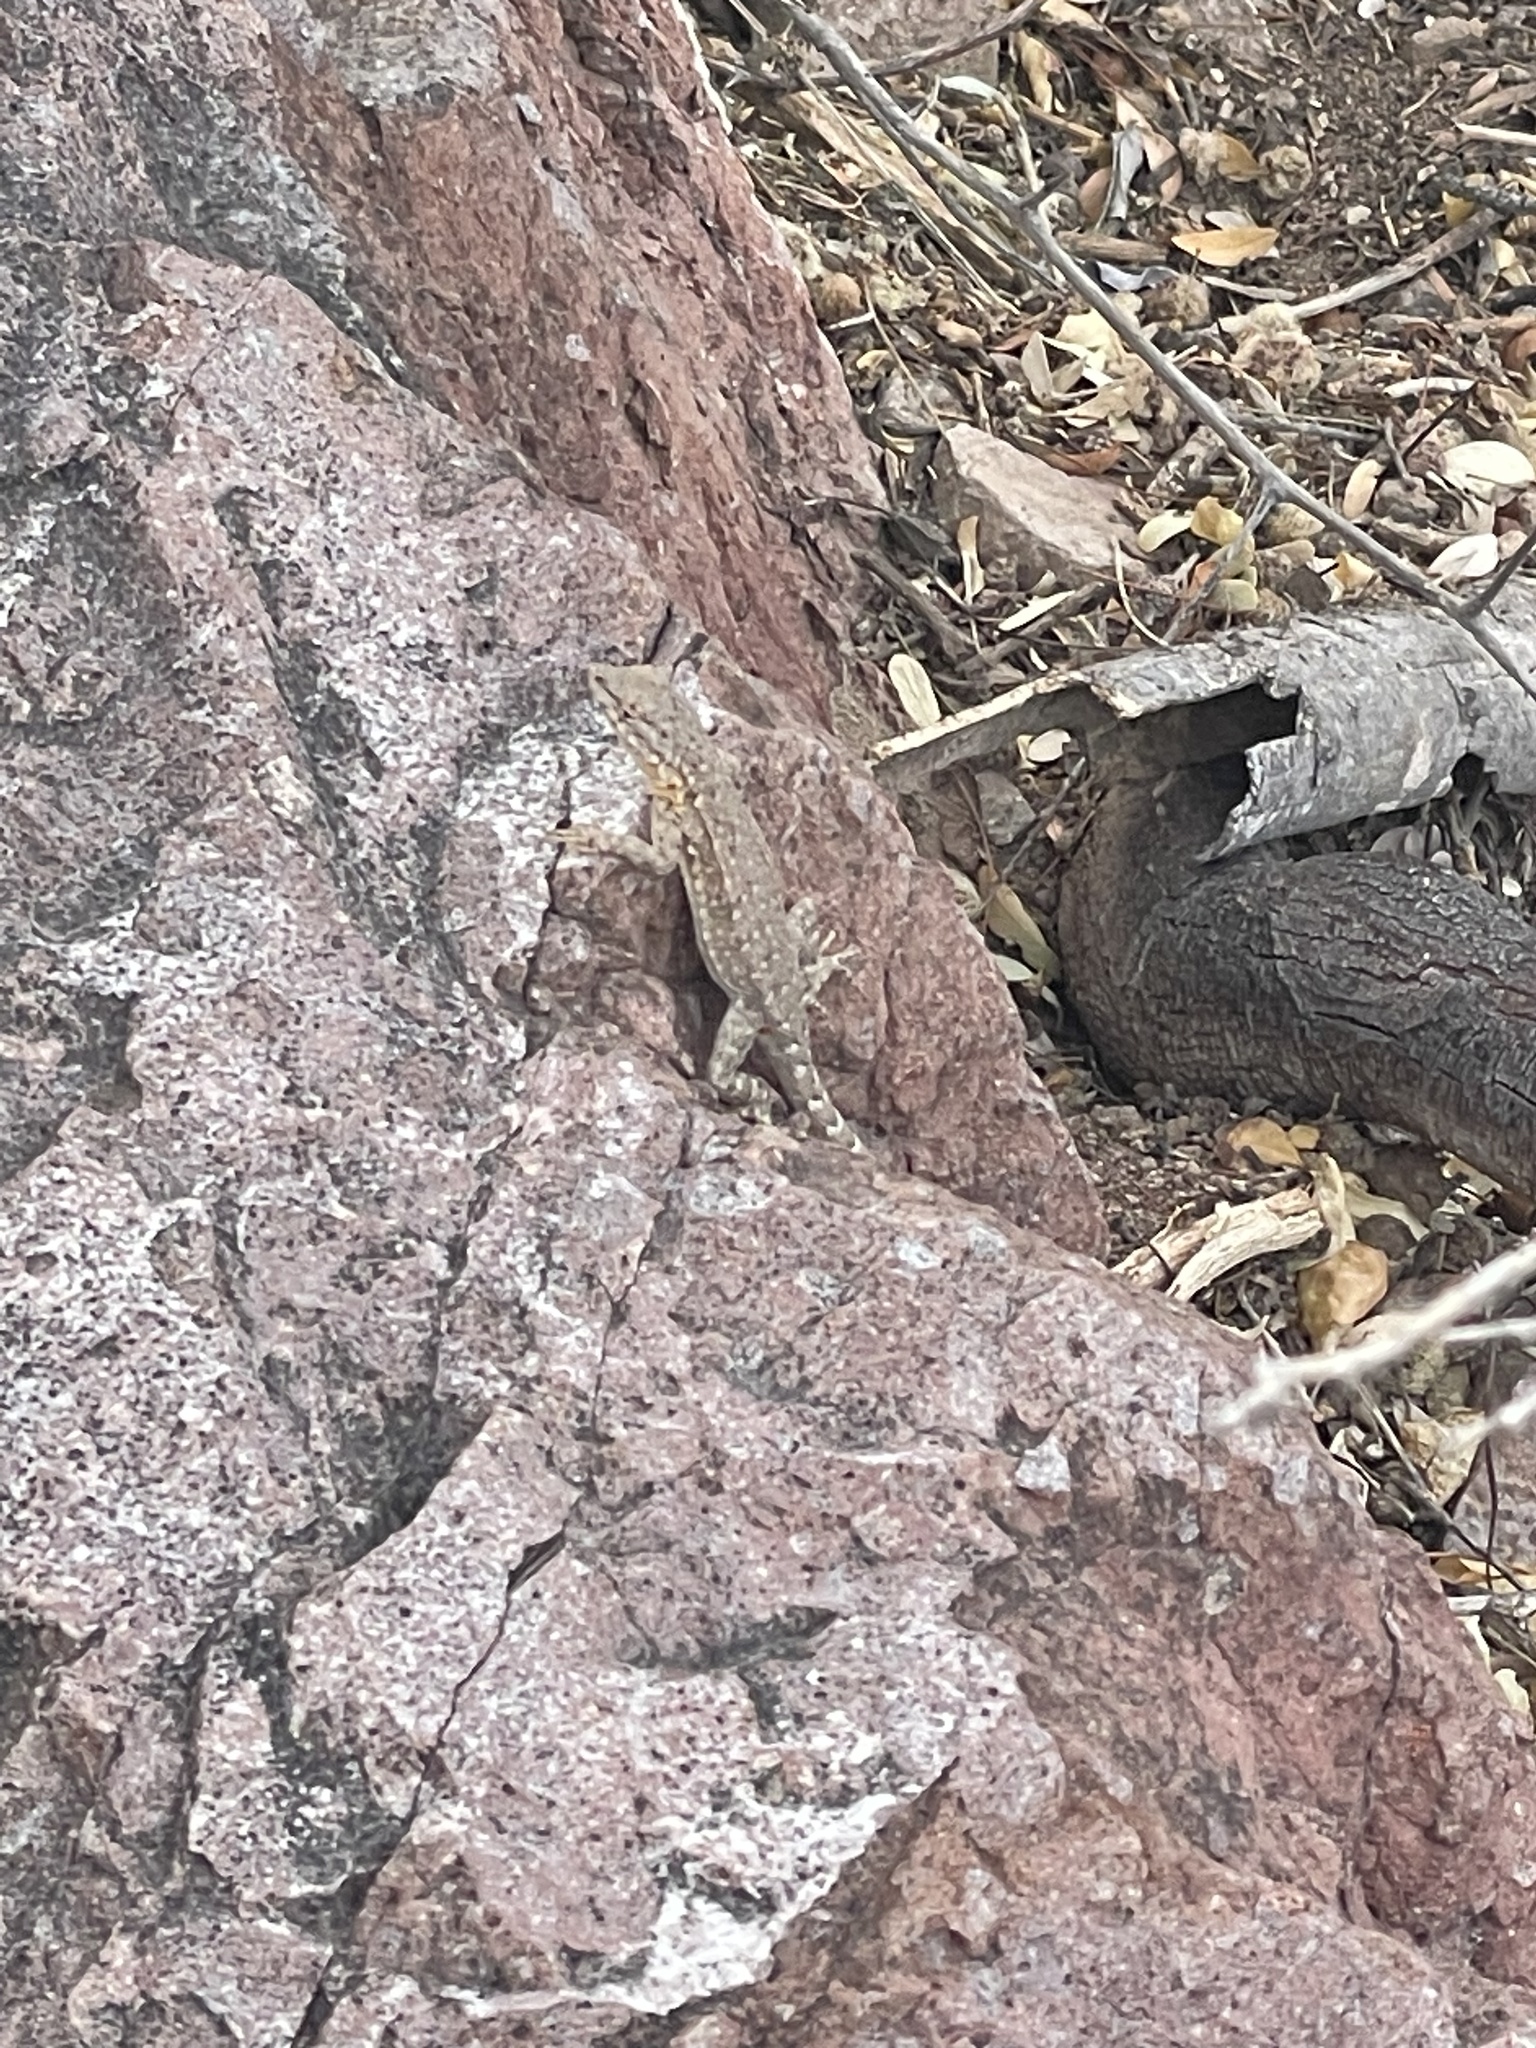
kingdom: Animalia
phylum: Chordata
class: Squamata
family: Phrynosomatidae
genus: Uta
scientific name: Uta stansburiana
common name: Side-blotched lizard
